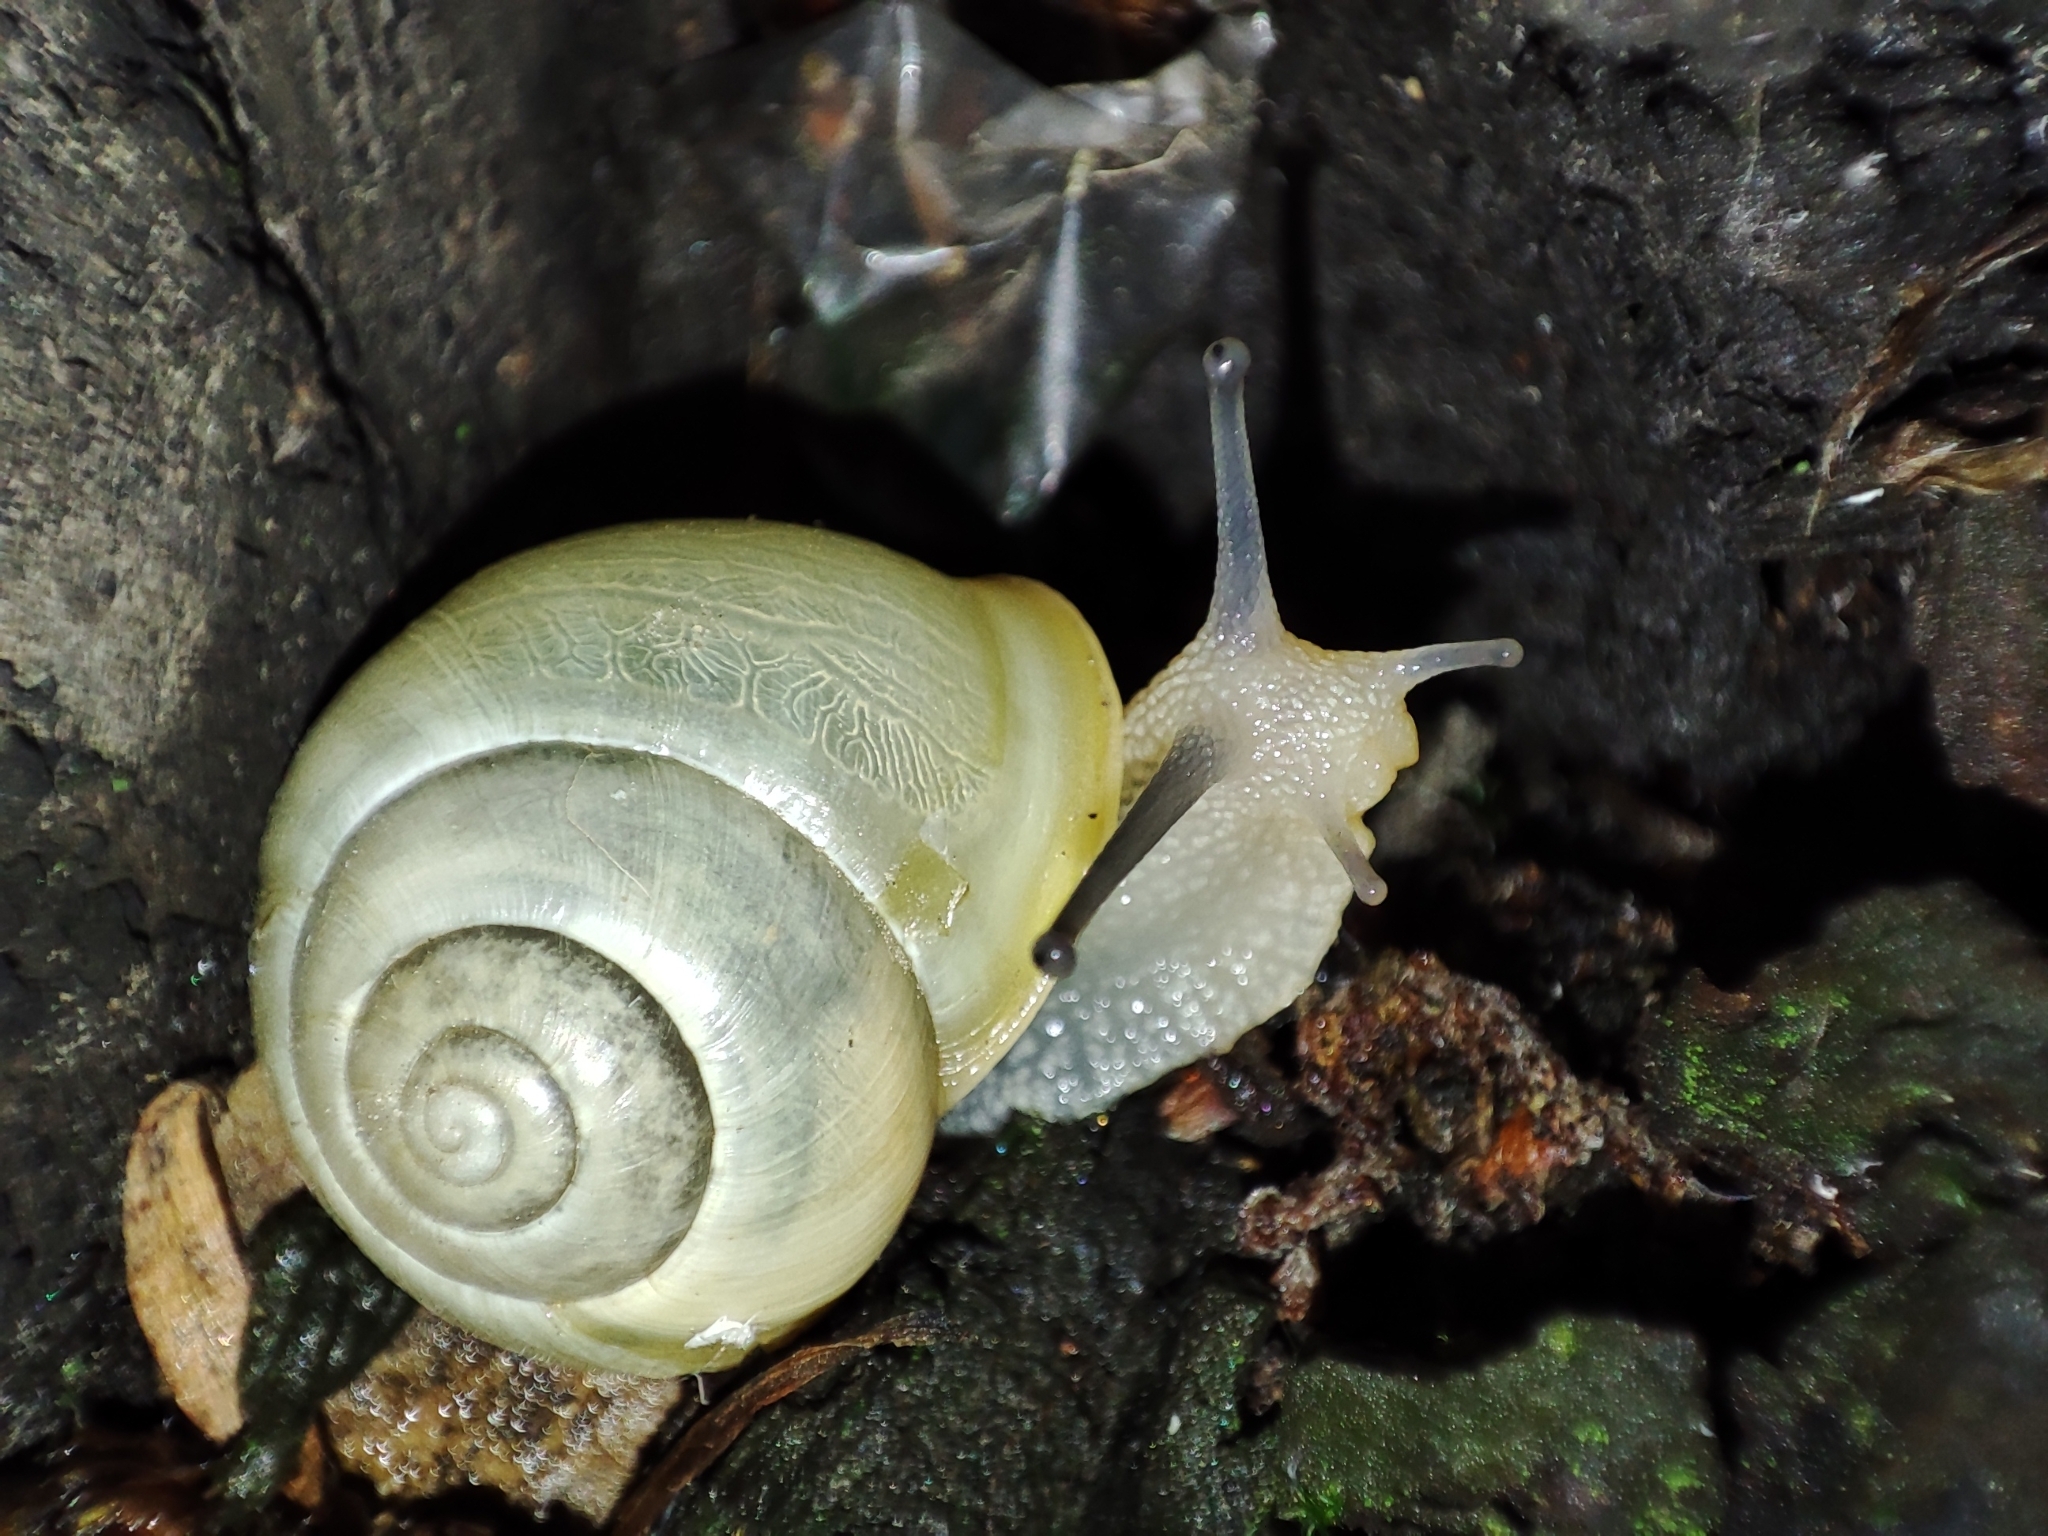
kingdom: Animalia
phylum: Mollusca
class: Gastropoda
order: Stylommatophora
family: Helicidae
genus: Cepaea
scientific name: Cepaea hortensis
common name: White-lip gardensnail
